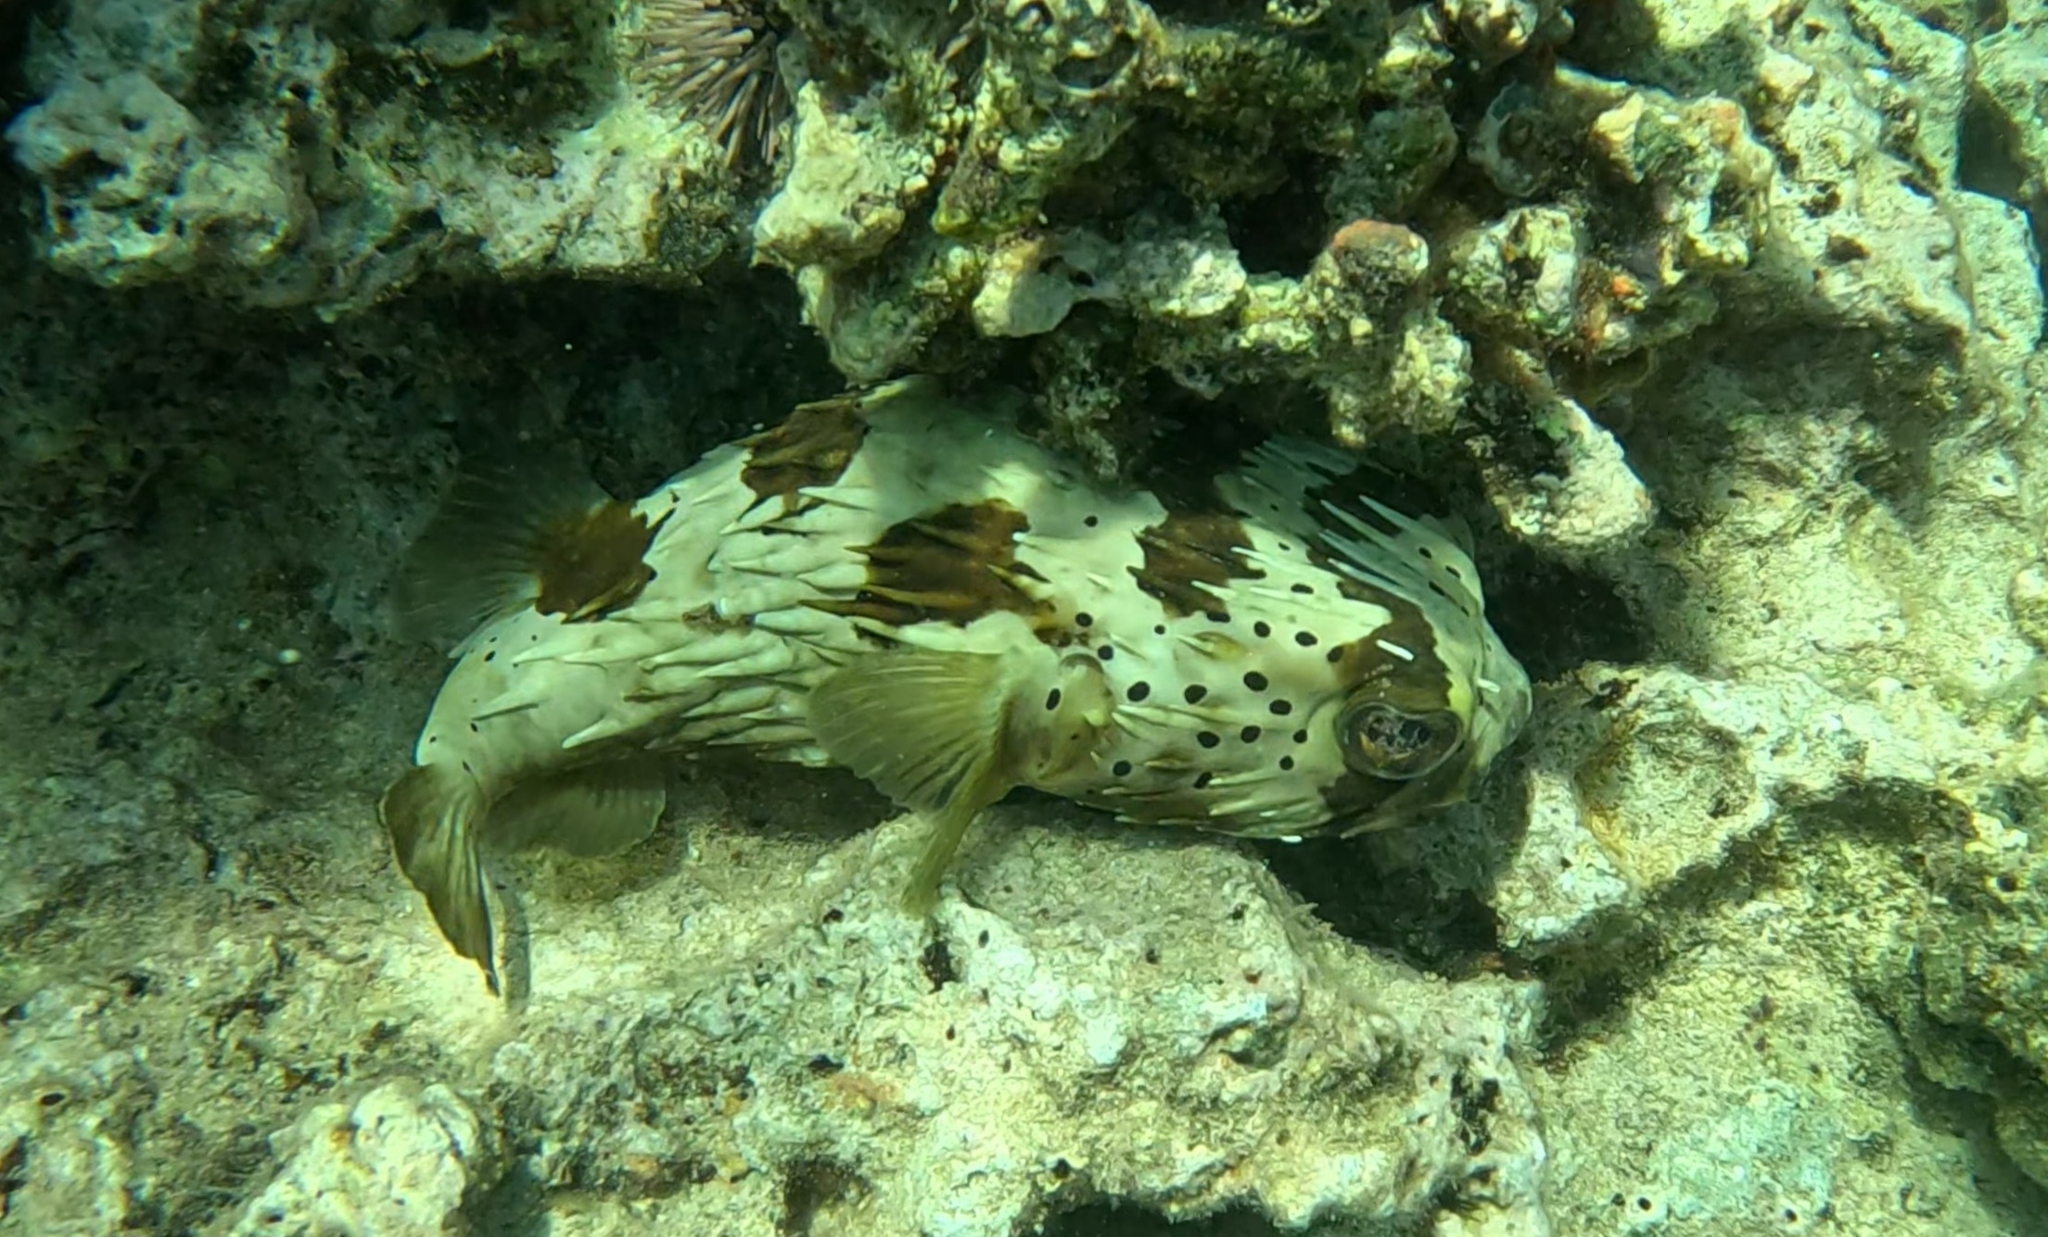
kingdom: Animalia
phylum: Chordata
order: Tetraodontiformes
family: Diodontidae
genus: Diodon
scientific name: Diodon holocanthus
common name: Balloonfish
